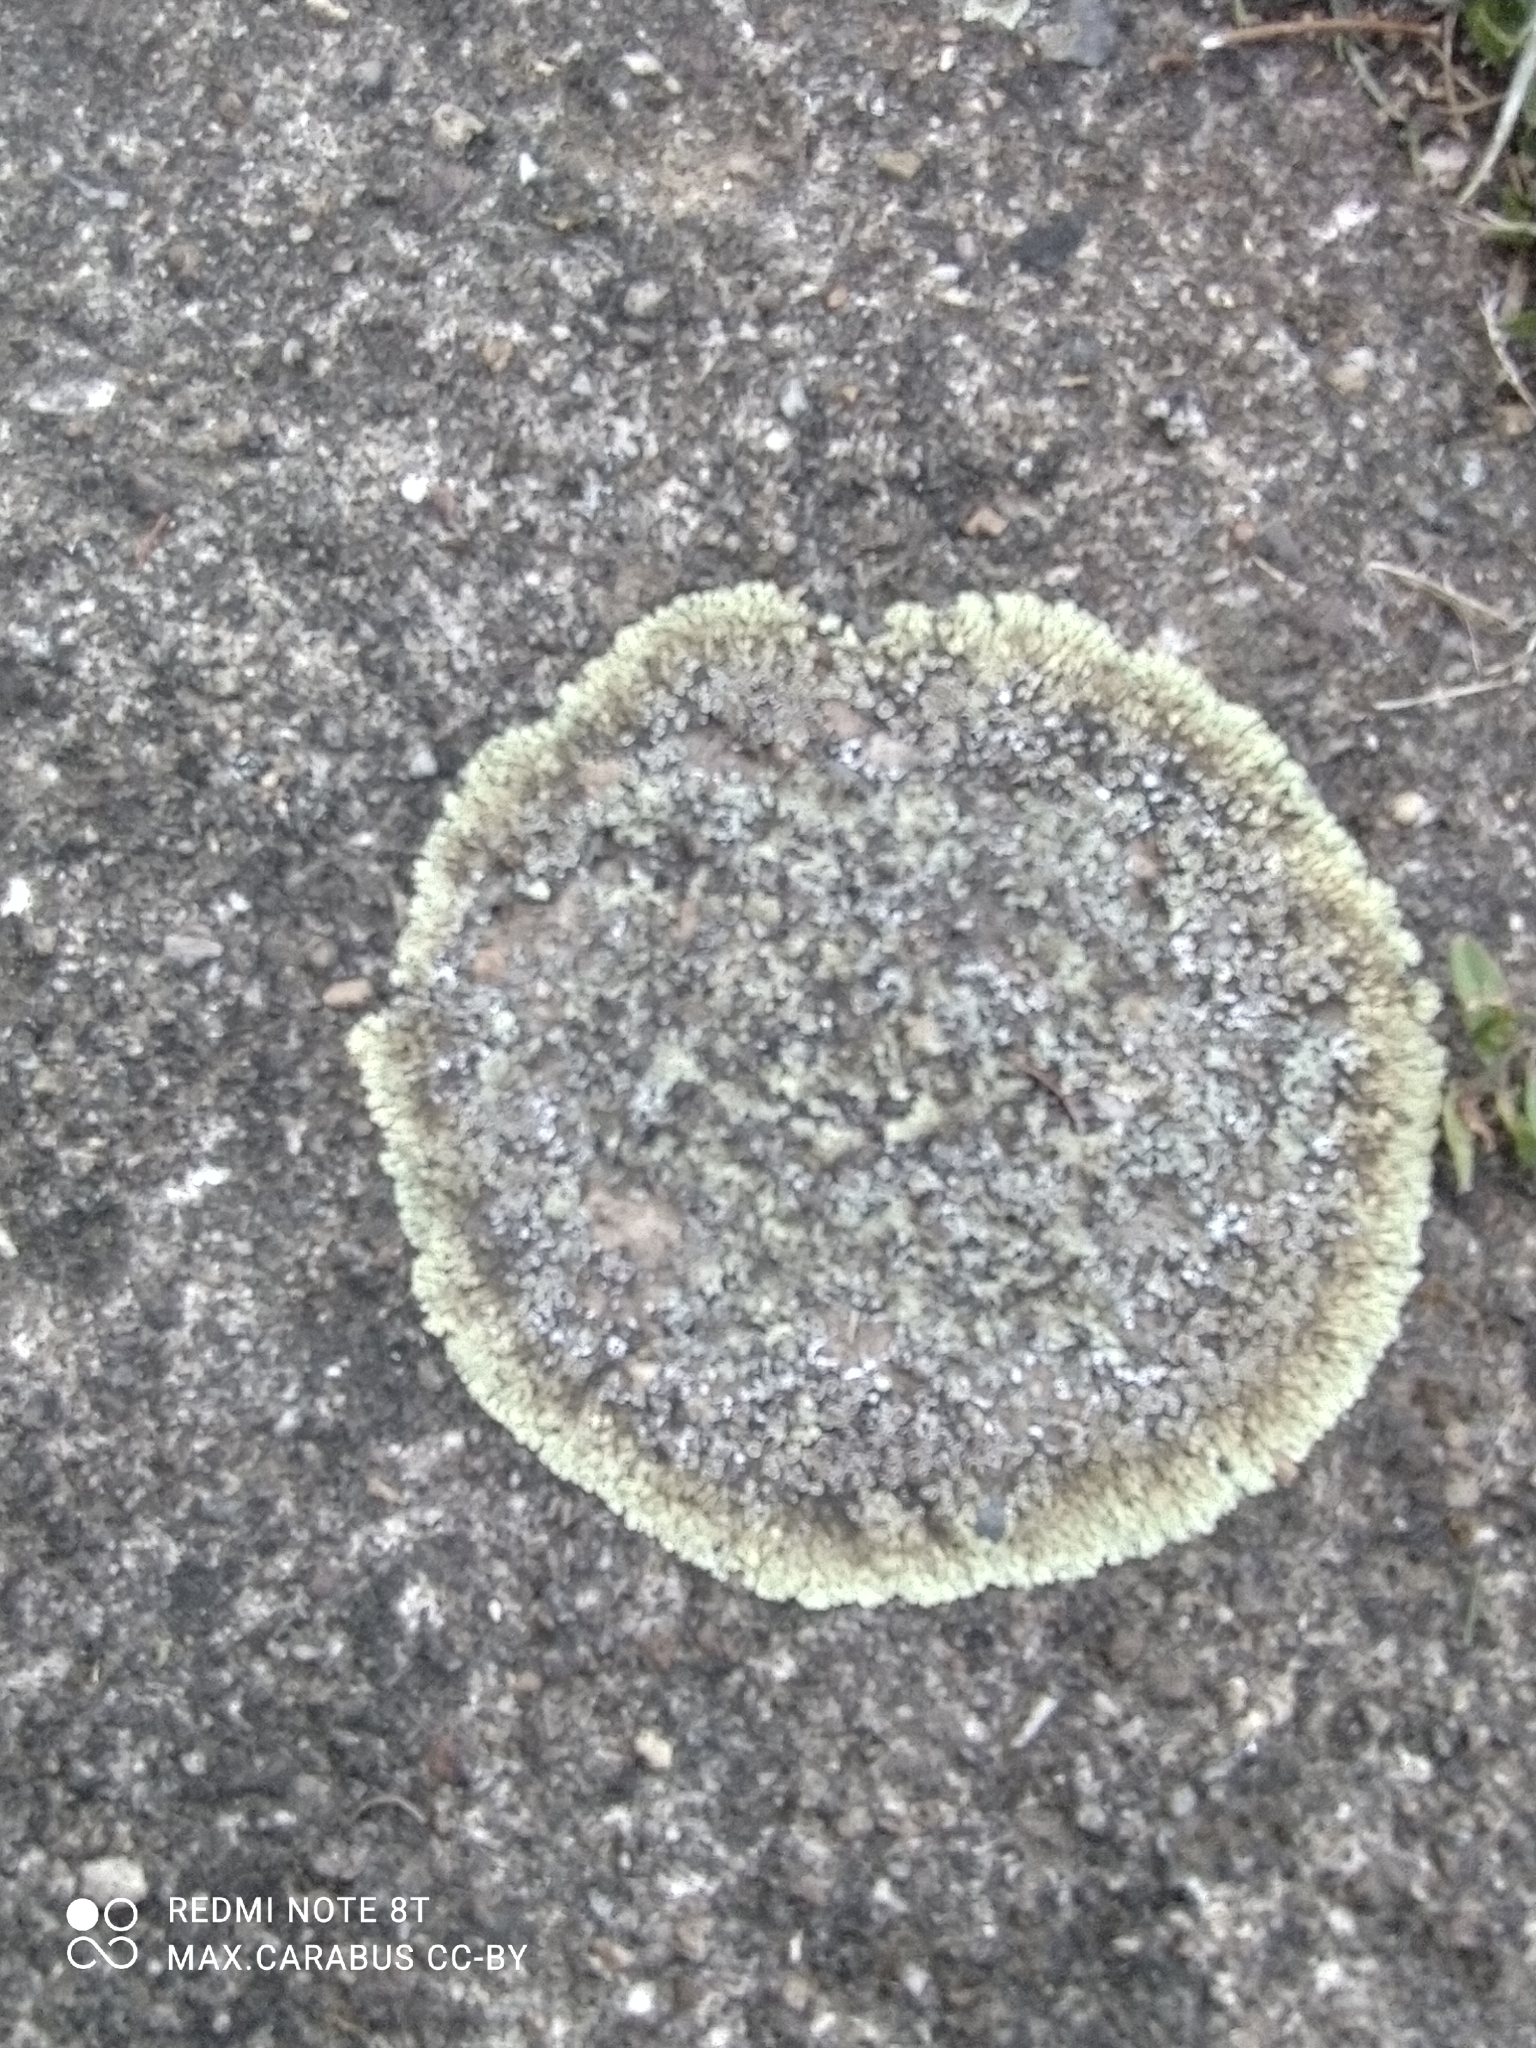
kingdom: Fungi
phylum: Ascomycota
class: Lecanoromycetes
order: Lecanorales
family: Lecanoraceae
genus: Protoparmeliopsis
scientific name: Protoparmeliopsis muralis
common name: Stonewall rim lichen
